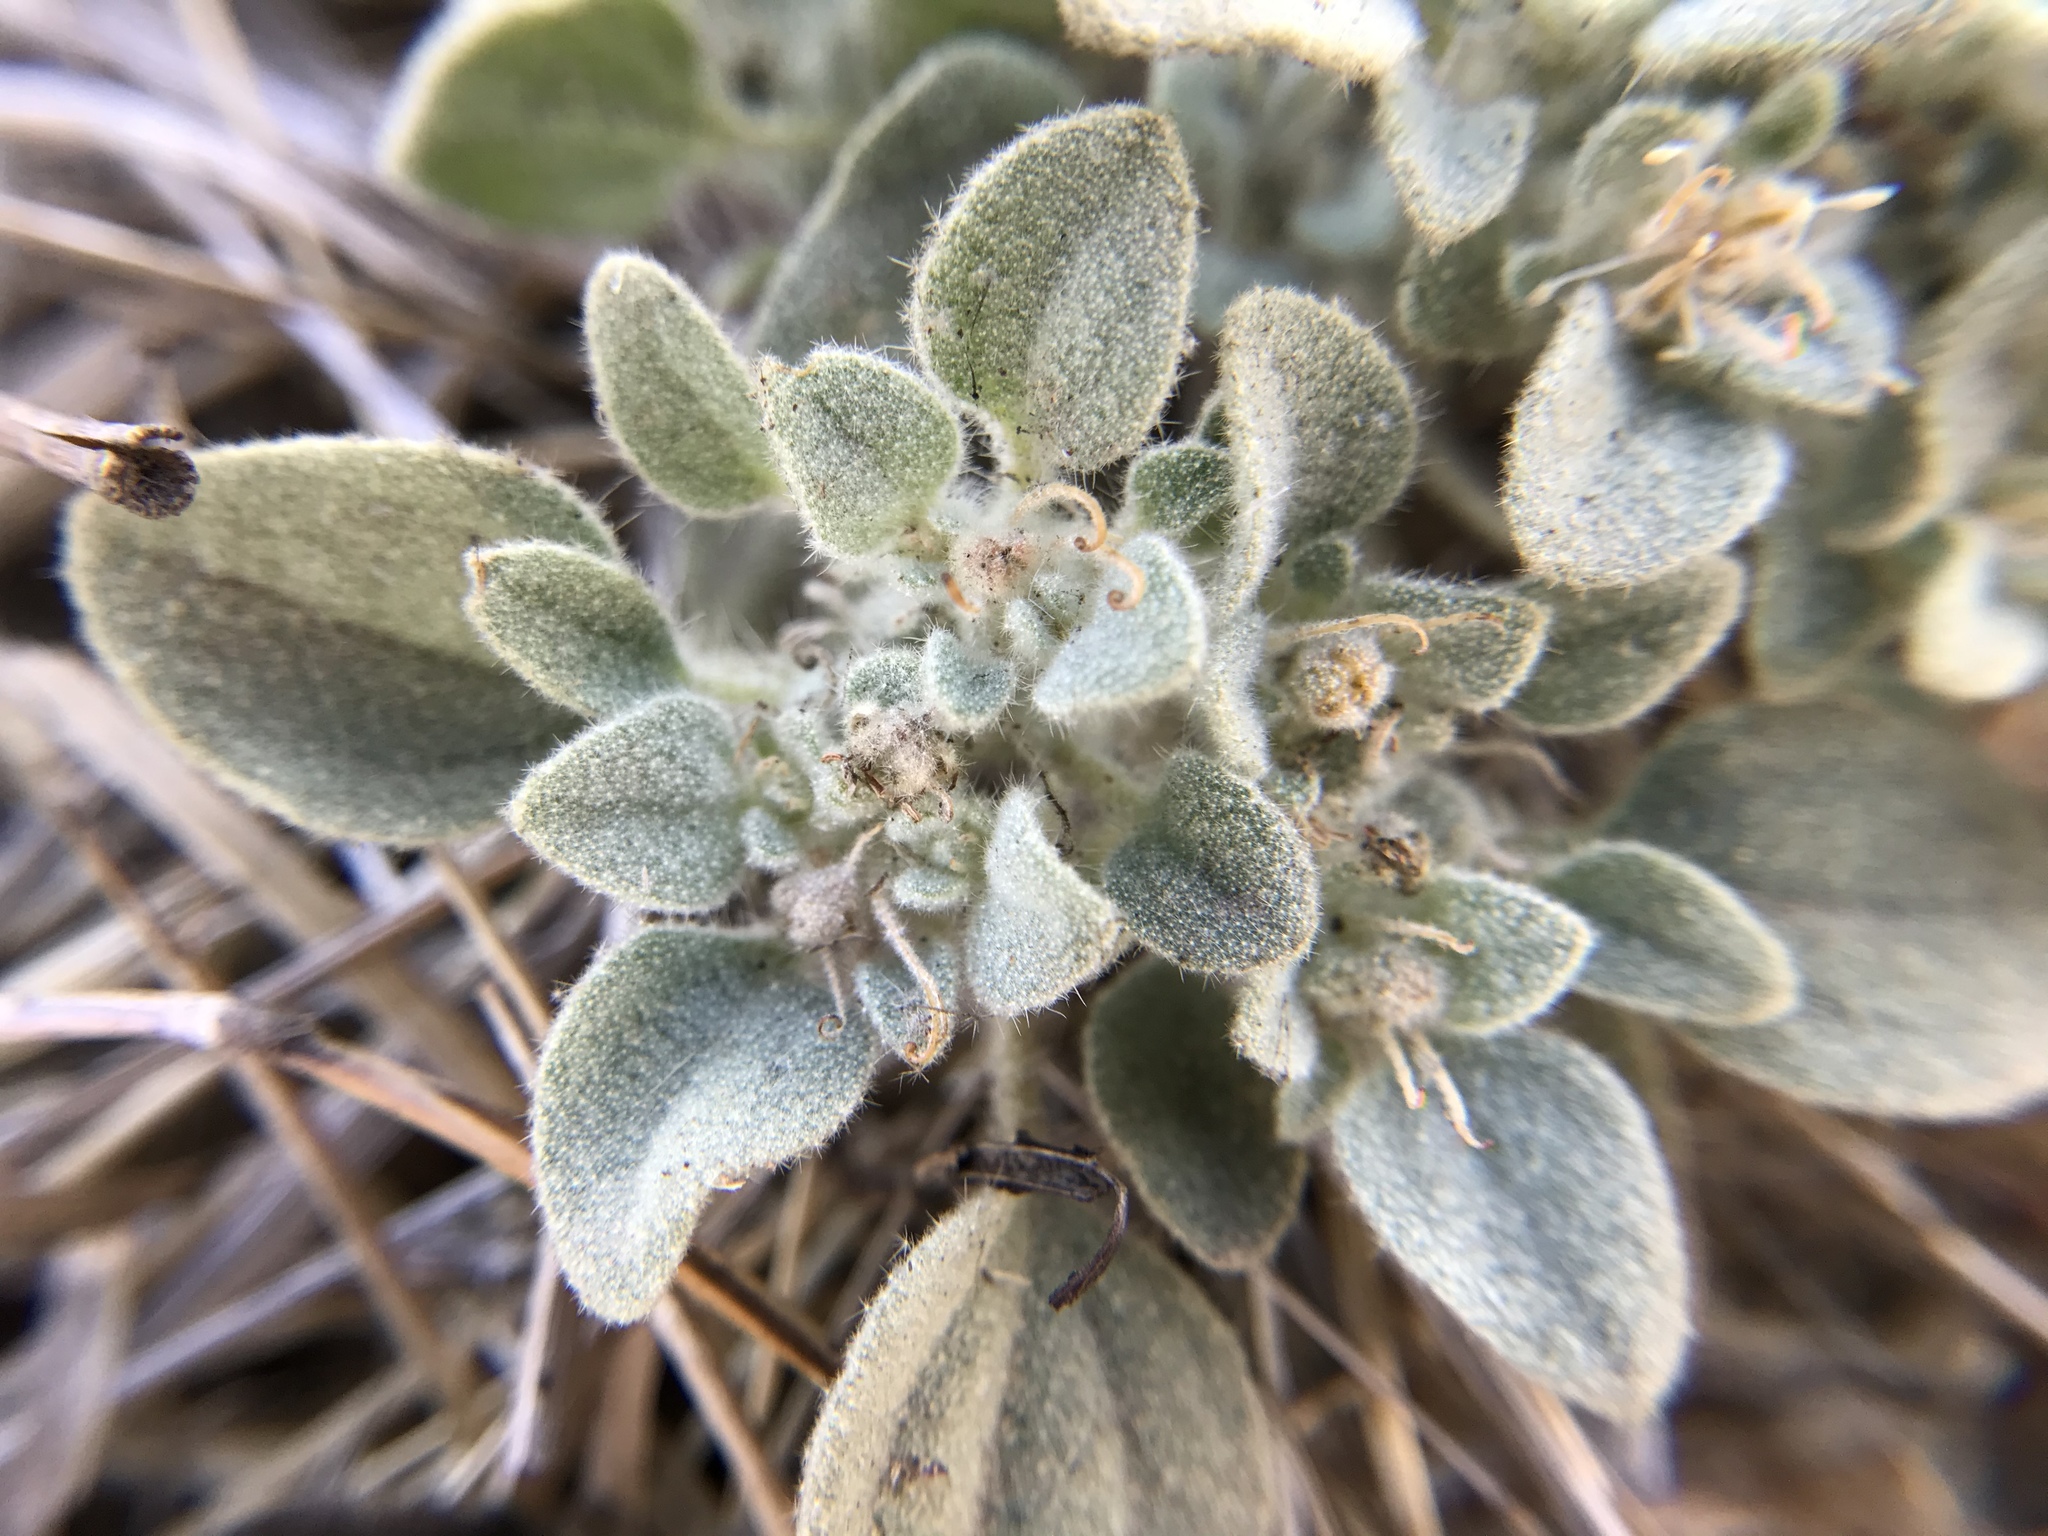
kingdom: Plantae
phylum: Tracheophyta
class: Magnoliopsida
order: Malpighiales
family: Euphorbiaceae
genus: Croton
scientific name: Croton setiger
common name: Dove weed
